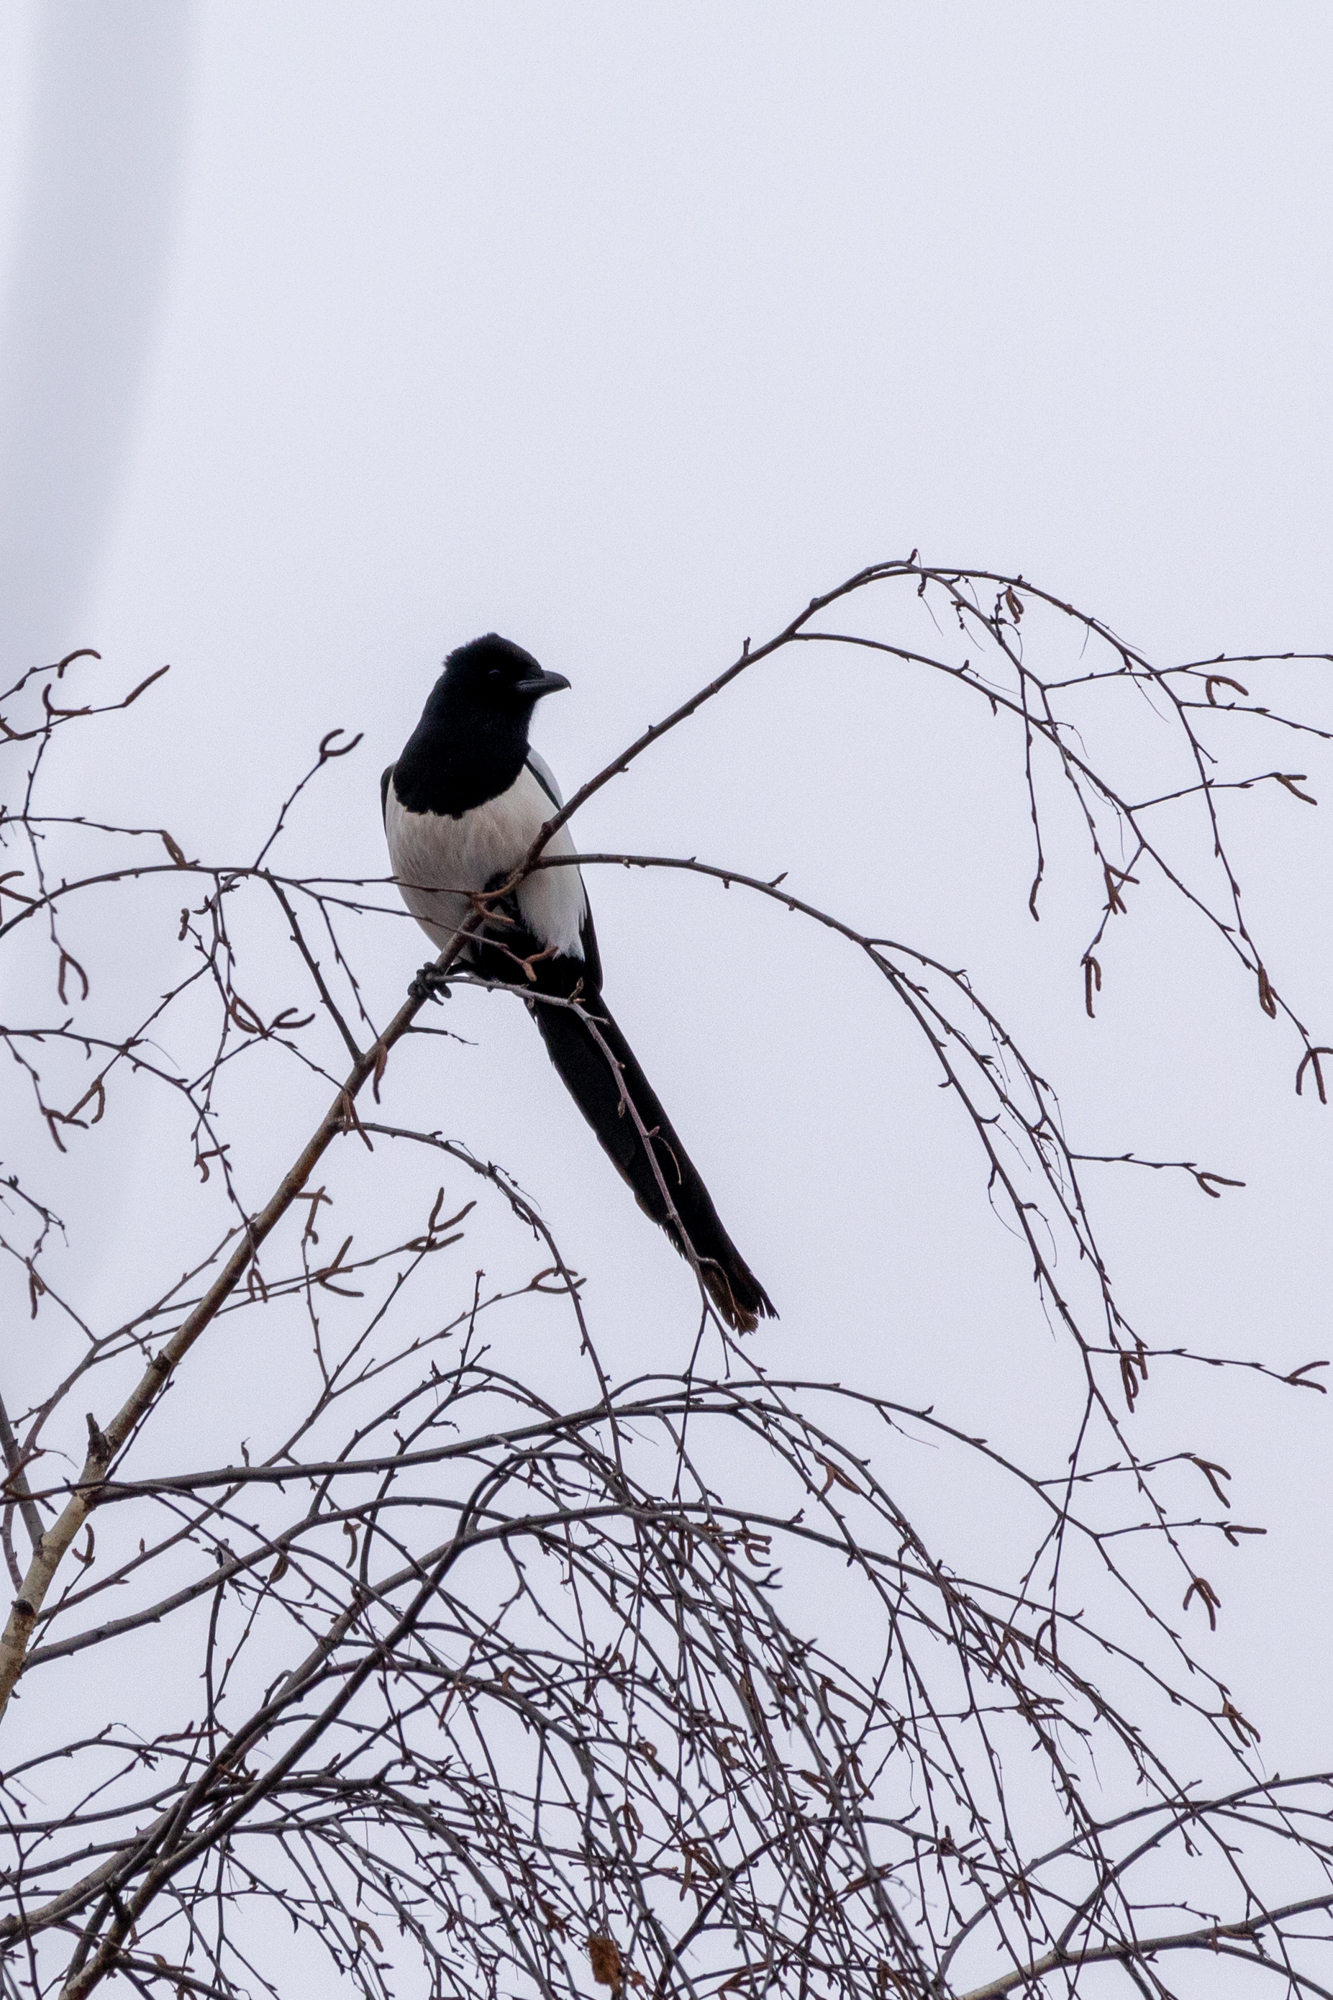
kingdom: Animalia
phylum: Chordata
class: Aves
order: Passeriformes
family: Corvidae
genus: Pica
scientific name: Pica pica
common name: Eurasian magpie
